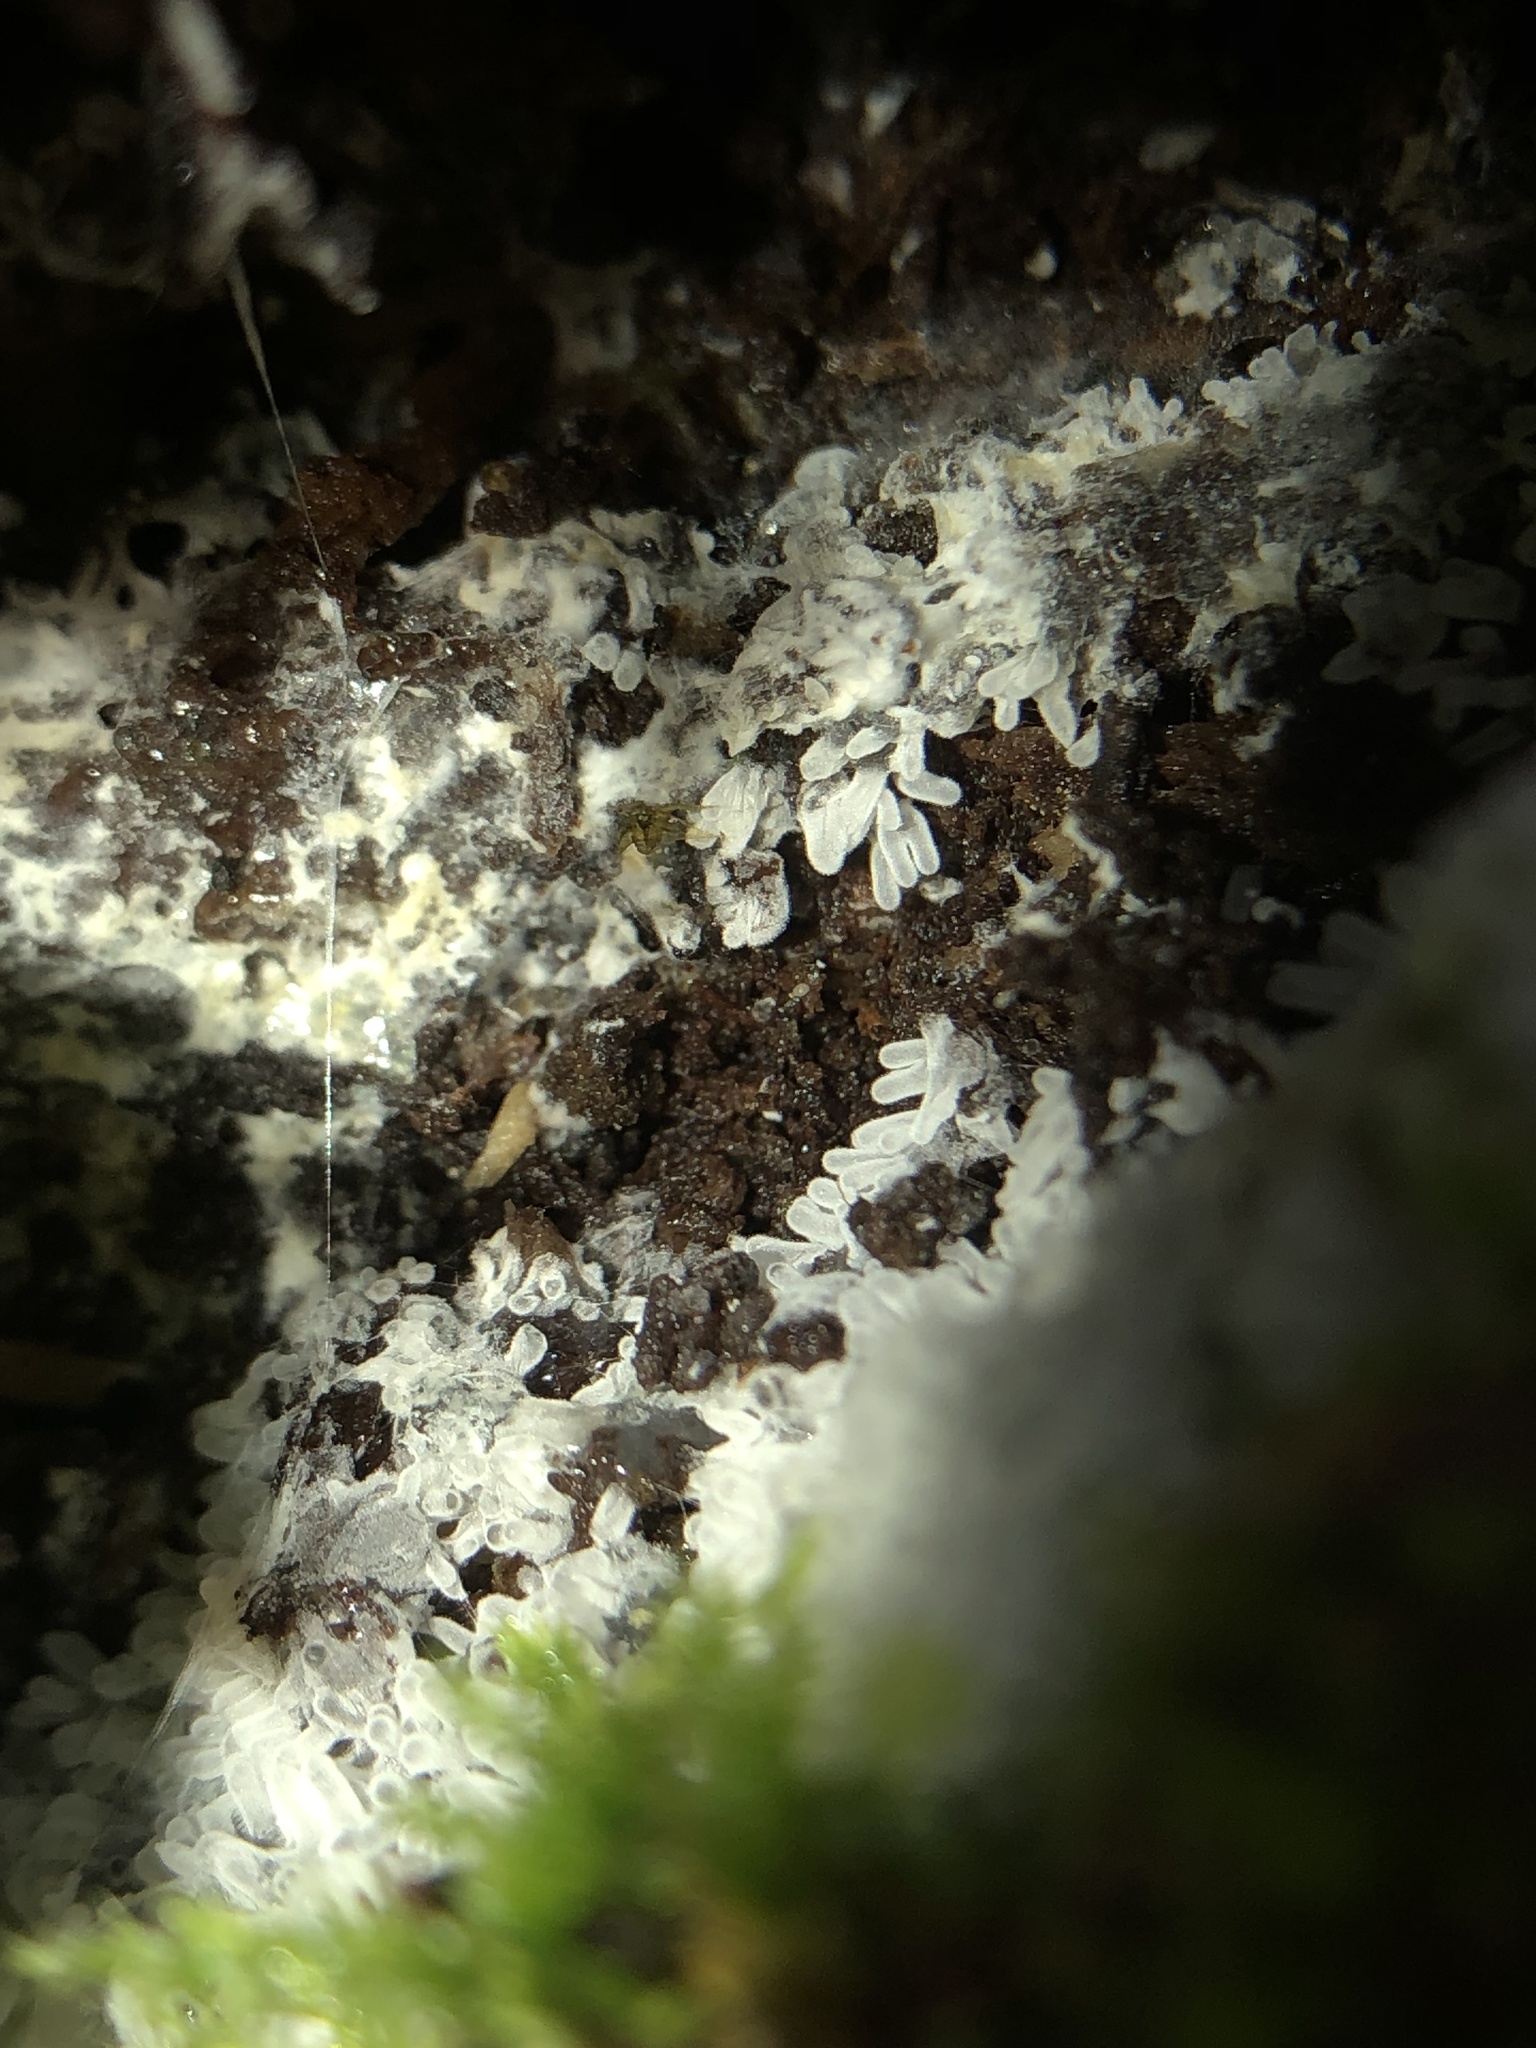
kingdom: Protozoa
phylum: Mycetozoa
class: Protosteliomycetes
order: Ceratiomyxales
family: Ceratiomyxaceae
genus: Ceratiomyxa
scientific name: Ceratiomyxa fruticulosa
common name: Honeycomb coral slime mold
